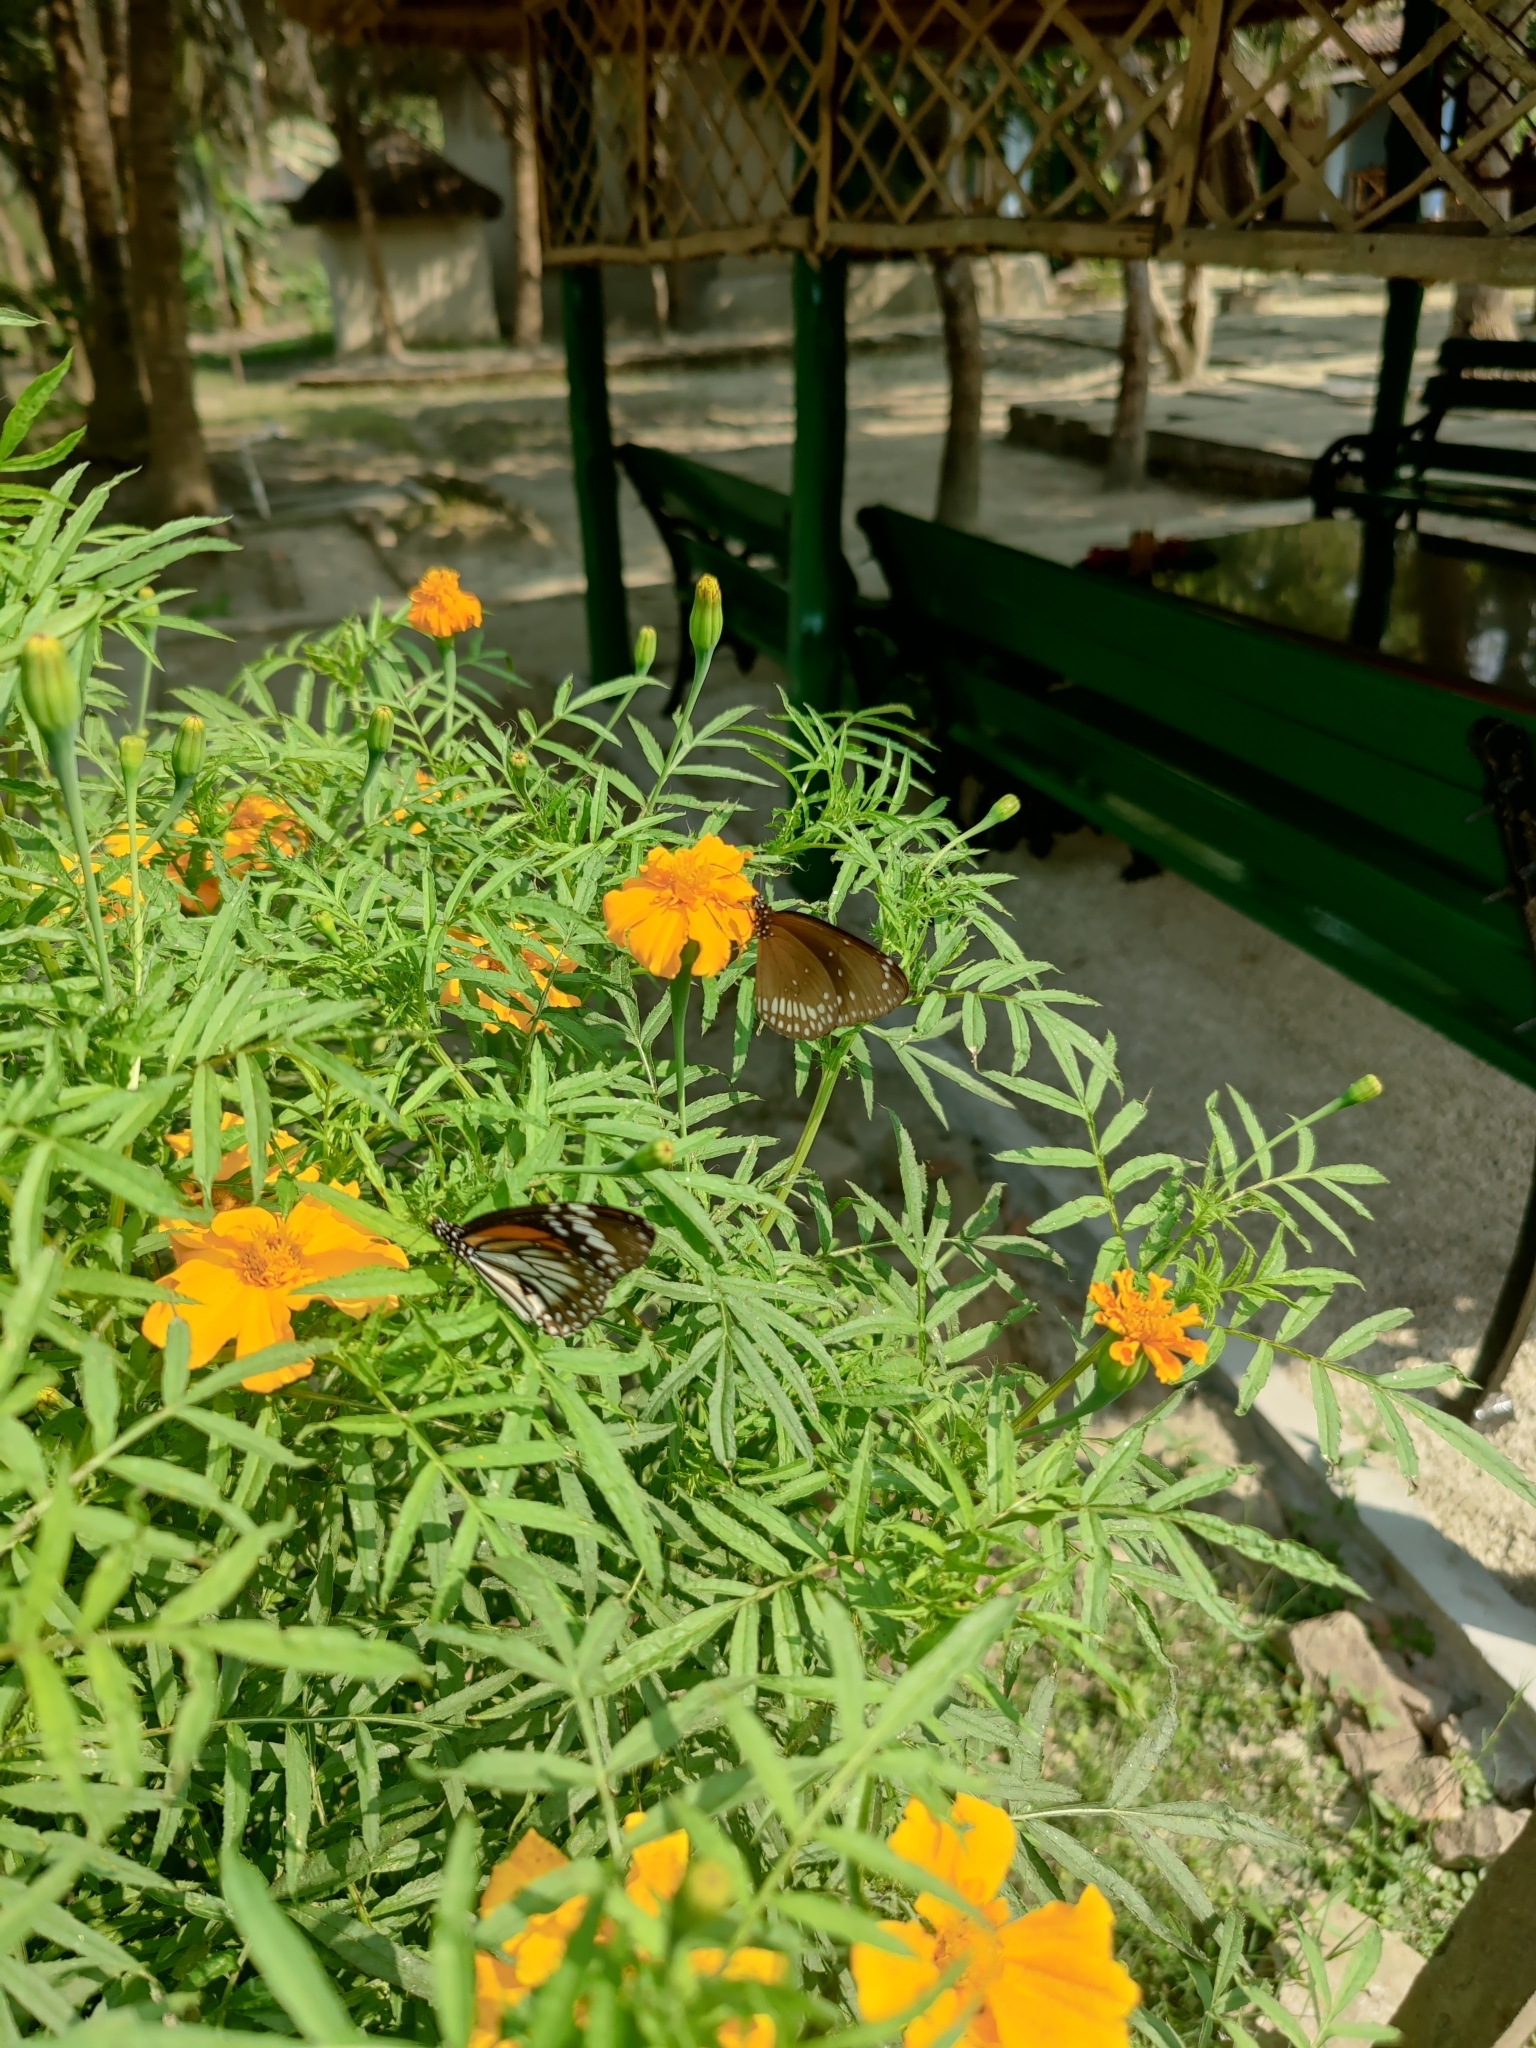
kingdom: Animalia
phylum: Arthropoda
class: Insecta
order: Lepidoptera
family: Nymphalidae
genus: Danaus
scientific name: Danaus melanippus
